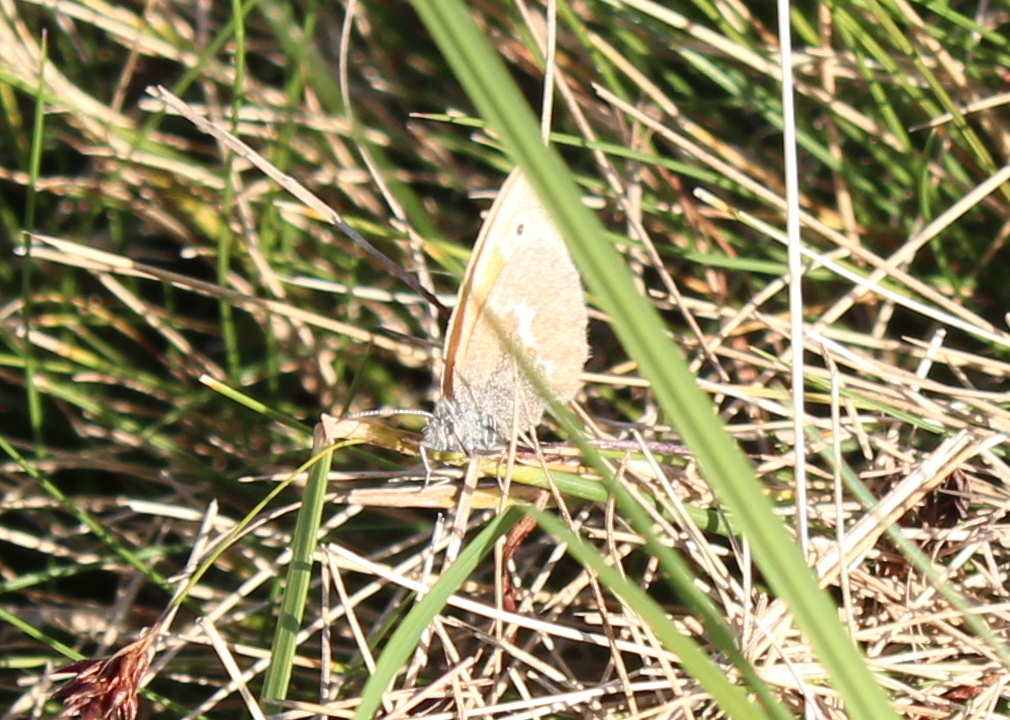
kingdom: Animalia
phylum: Arthropoda
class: Insecta
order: Lepidoptera
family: Nymphalidae
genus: Coenonympha
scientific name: Coenonympha california
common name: Common ringlet
